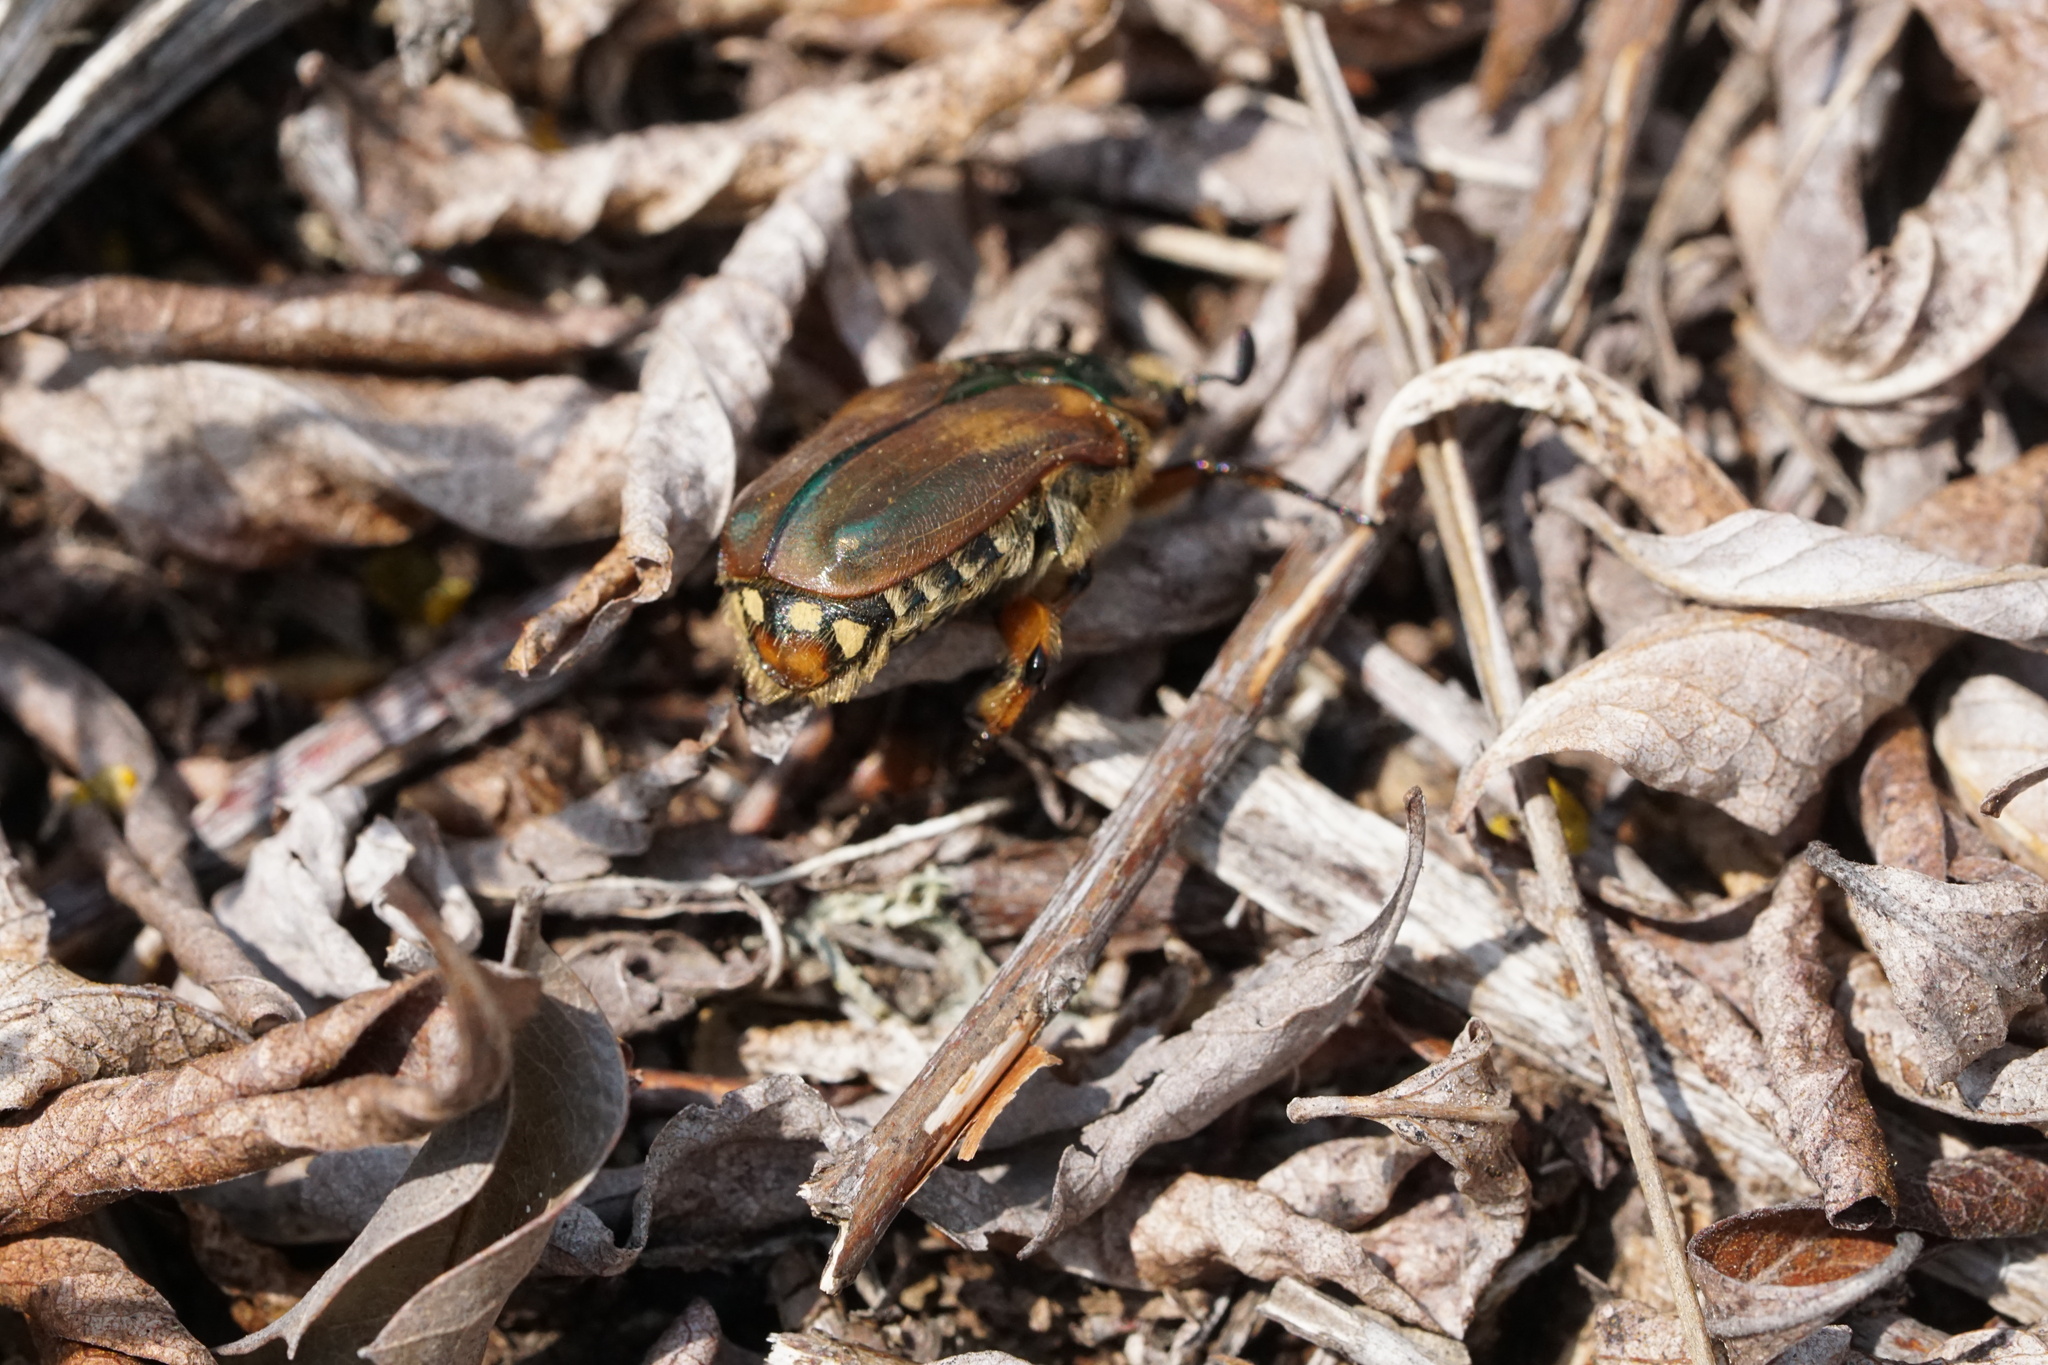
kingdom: Animalia
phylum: Arthropoda
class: Insecta
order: Coleoptera
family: Scarabaeidae
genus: Euphoria
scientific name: Euphoria fulgida
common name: Emerald euphoria
